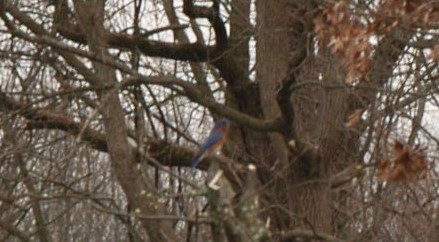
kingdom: Animalia
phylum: Chordata
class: Aves
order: Passeriformes
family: Turdidae
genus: Sialia
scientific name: Sialia sialis
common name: Eastern bluebird
